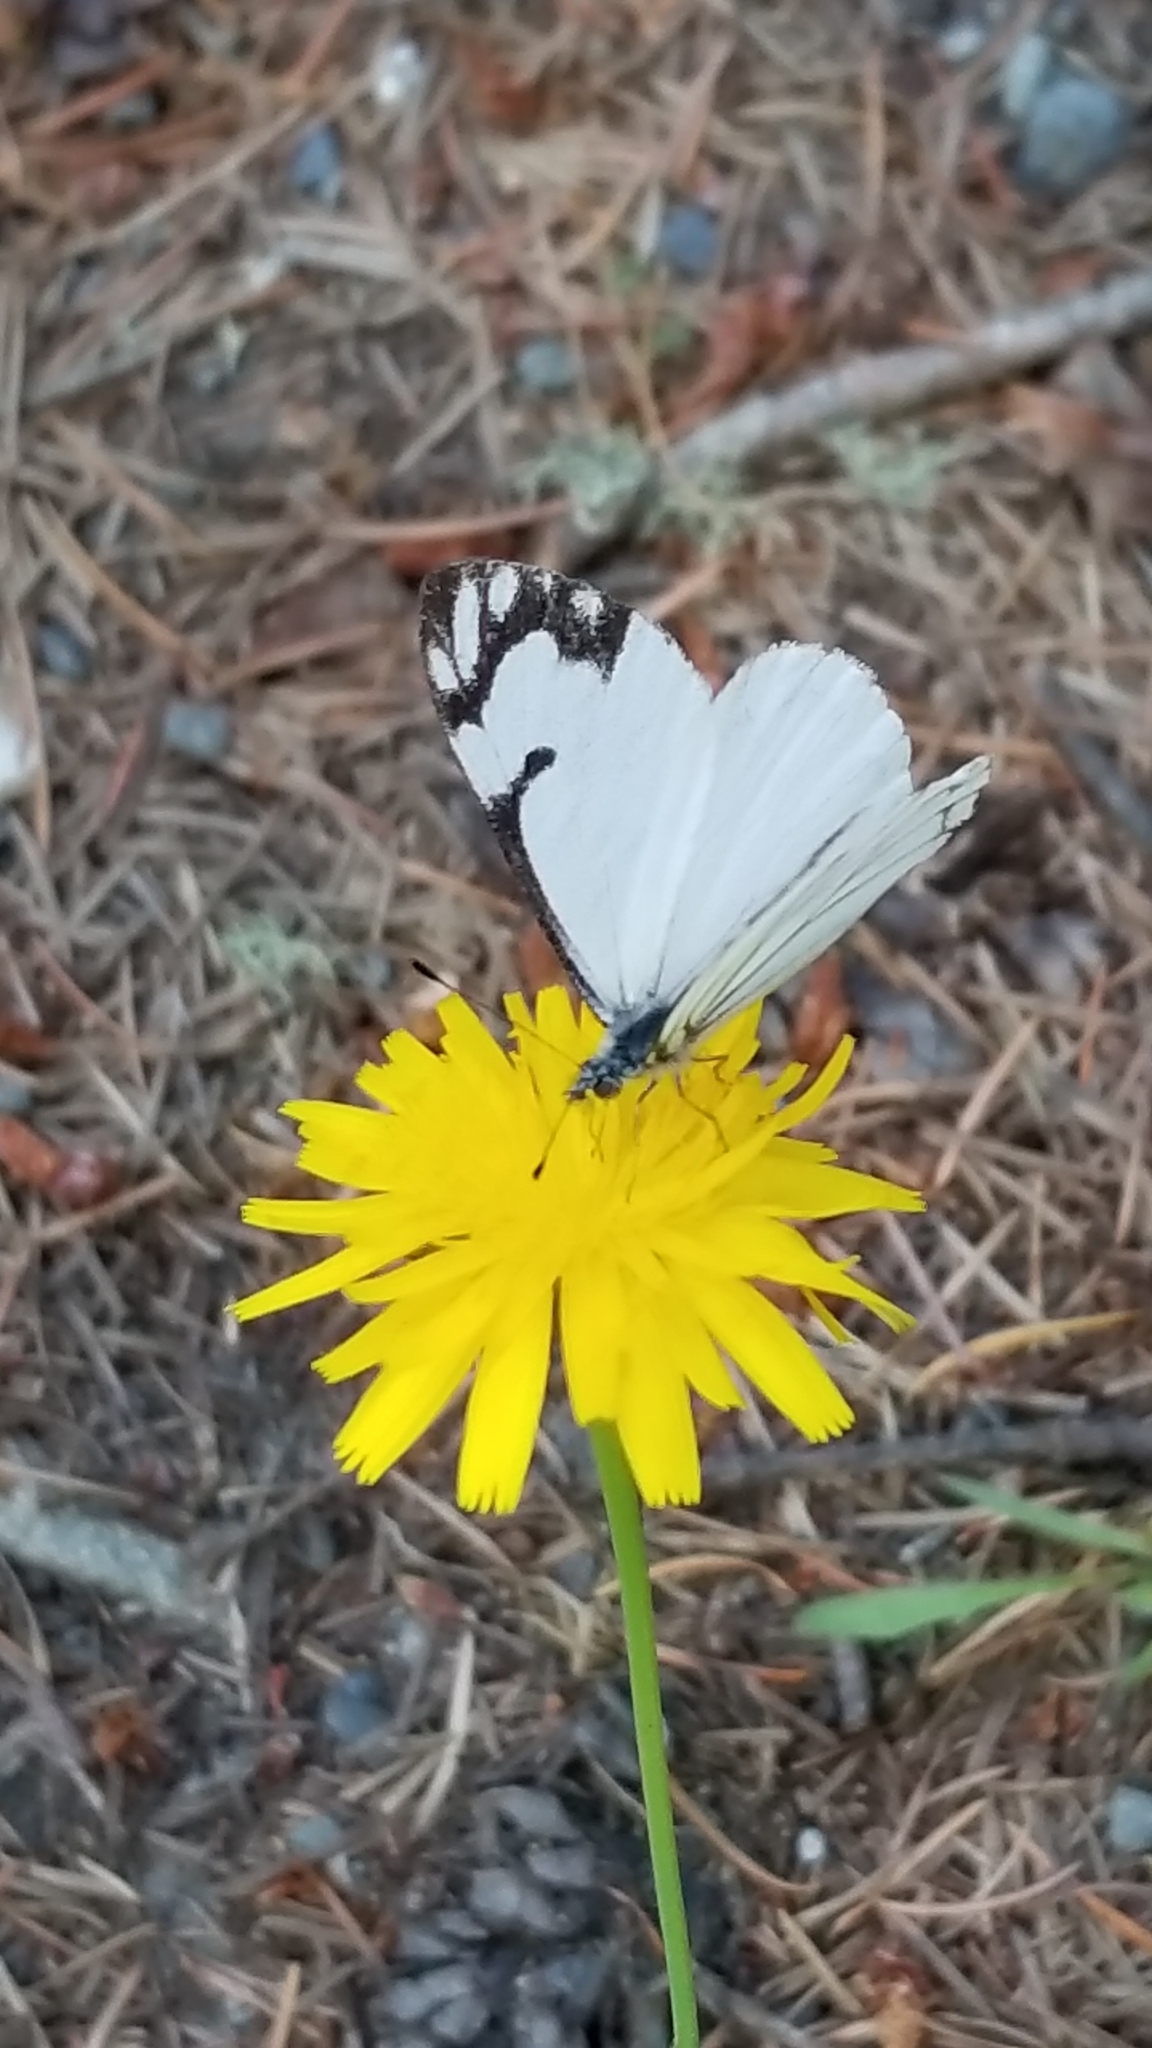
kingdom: Animalia
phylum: Arthropoda
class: Insecta
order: Lepidoptera
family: Pieridae
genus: Neophasia
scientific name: Neophasia menapia
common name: Pine white
